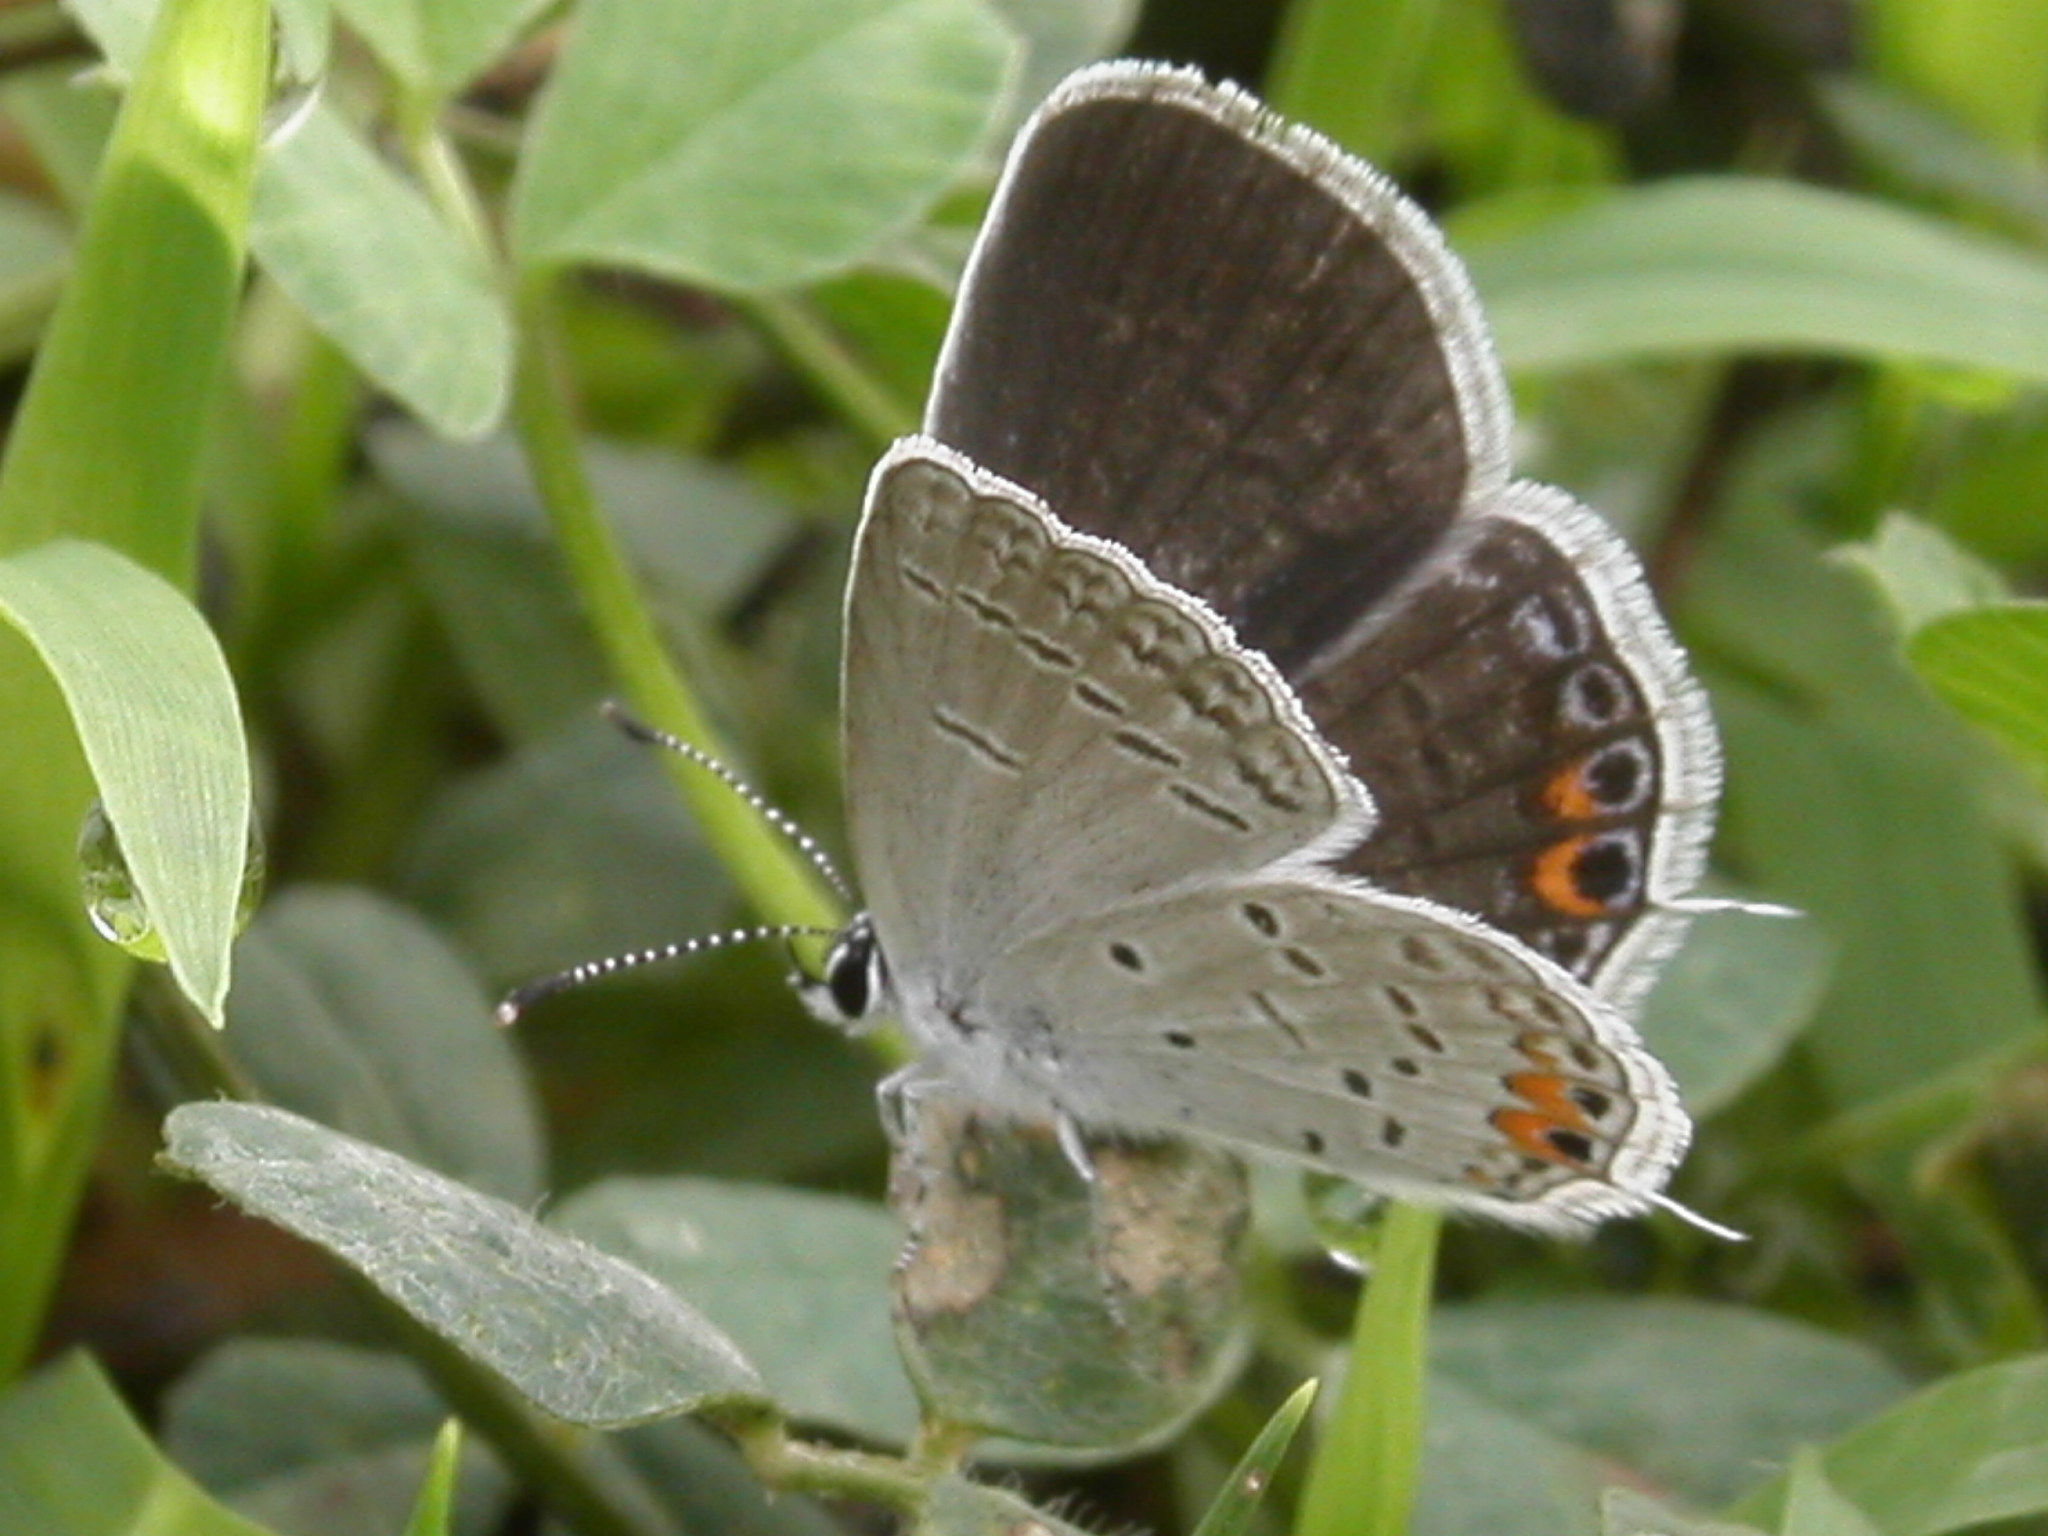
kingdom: Animalia
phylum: Arthropoda
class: Insecta
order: Lepidoptera
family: Lycaenidae
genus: Elkalyce
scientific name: Elkalyce comyntas
